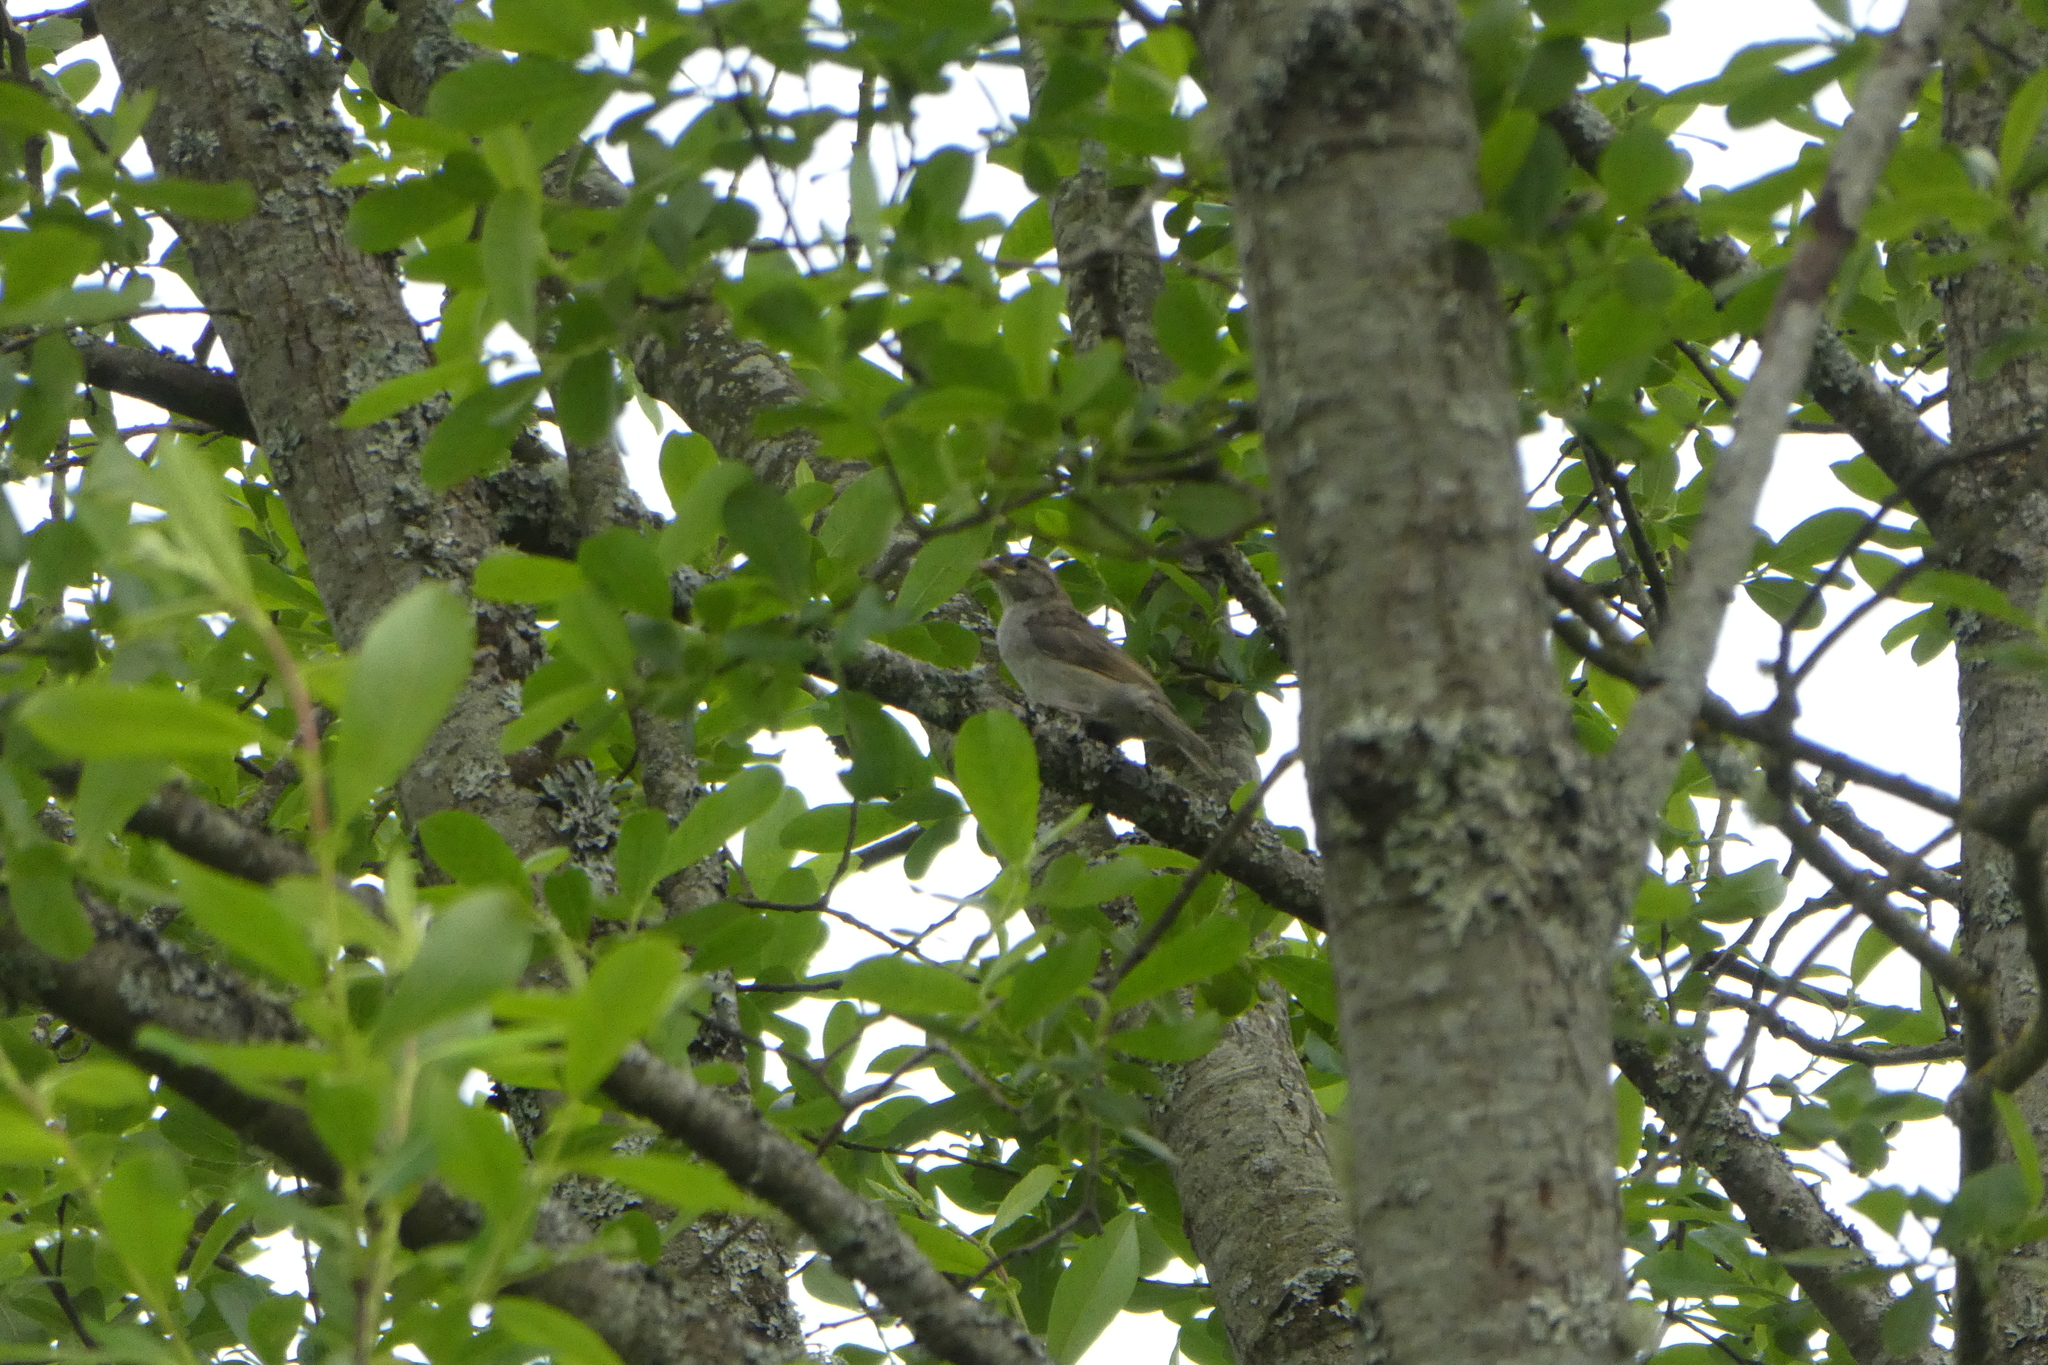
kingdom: Animalia
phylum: Chordata
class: Aves
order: Passeriformes
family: Passeridae
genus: Passer
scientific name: Passer domesticus
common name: House sparrow
